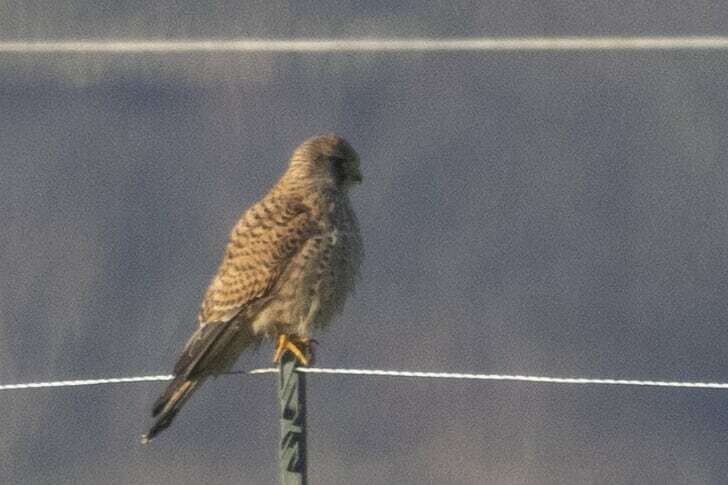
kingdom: Animalia
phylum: Chordata
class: Aves
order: Falconiformes
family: Falconidae
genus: Falco
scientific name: Falco tinnunculus
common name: Common kestrel
